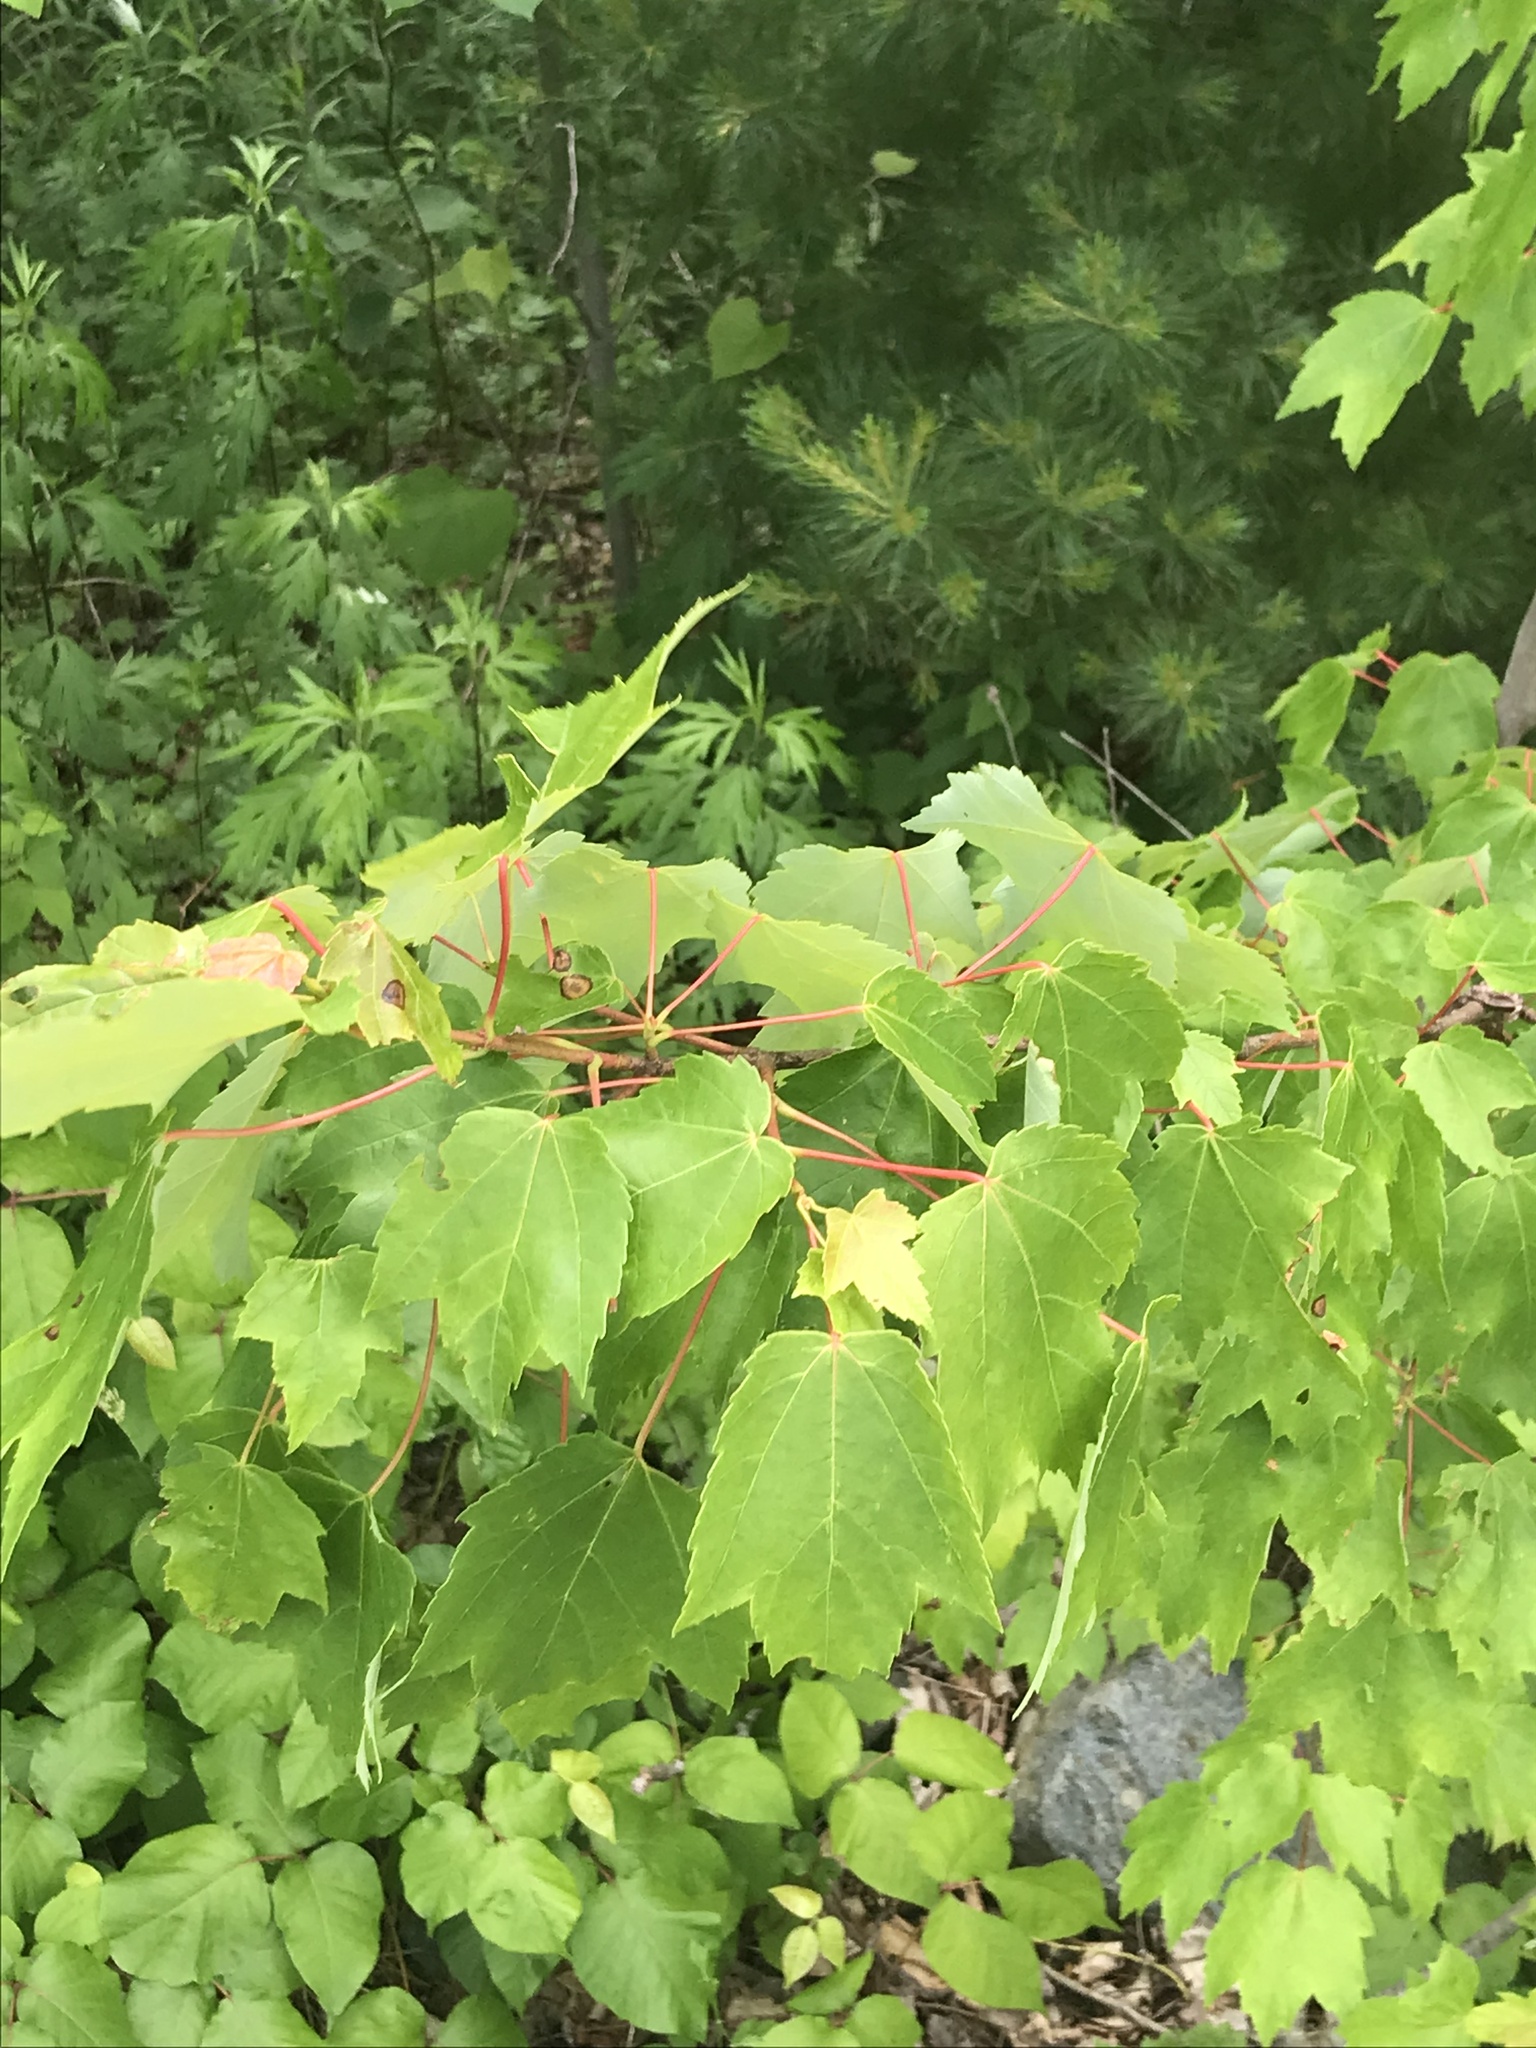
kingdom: Plantae
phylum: Tracheophyta
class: Magnoliopsida
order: Sapindales
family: Sapindaceae
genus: Acer
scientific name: Acer rubrum
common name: Red maple
